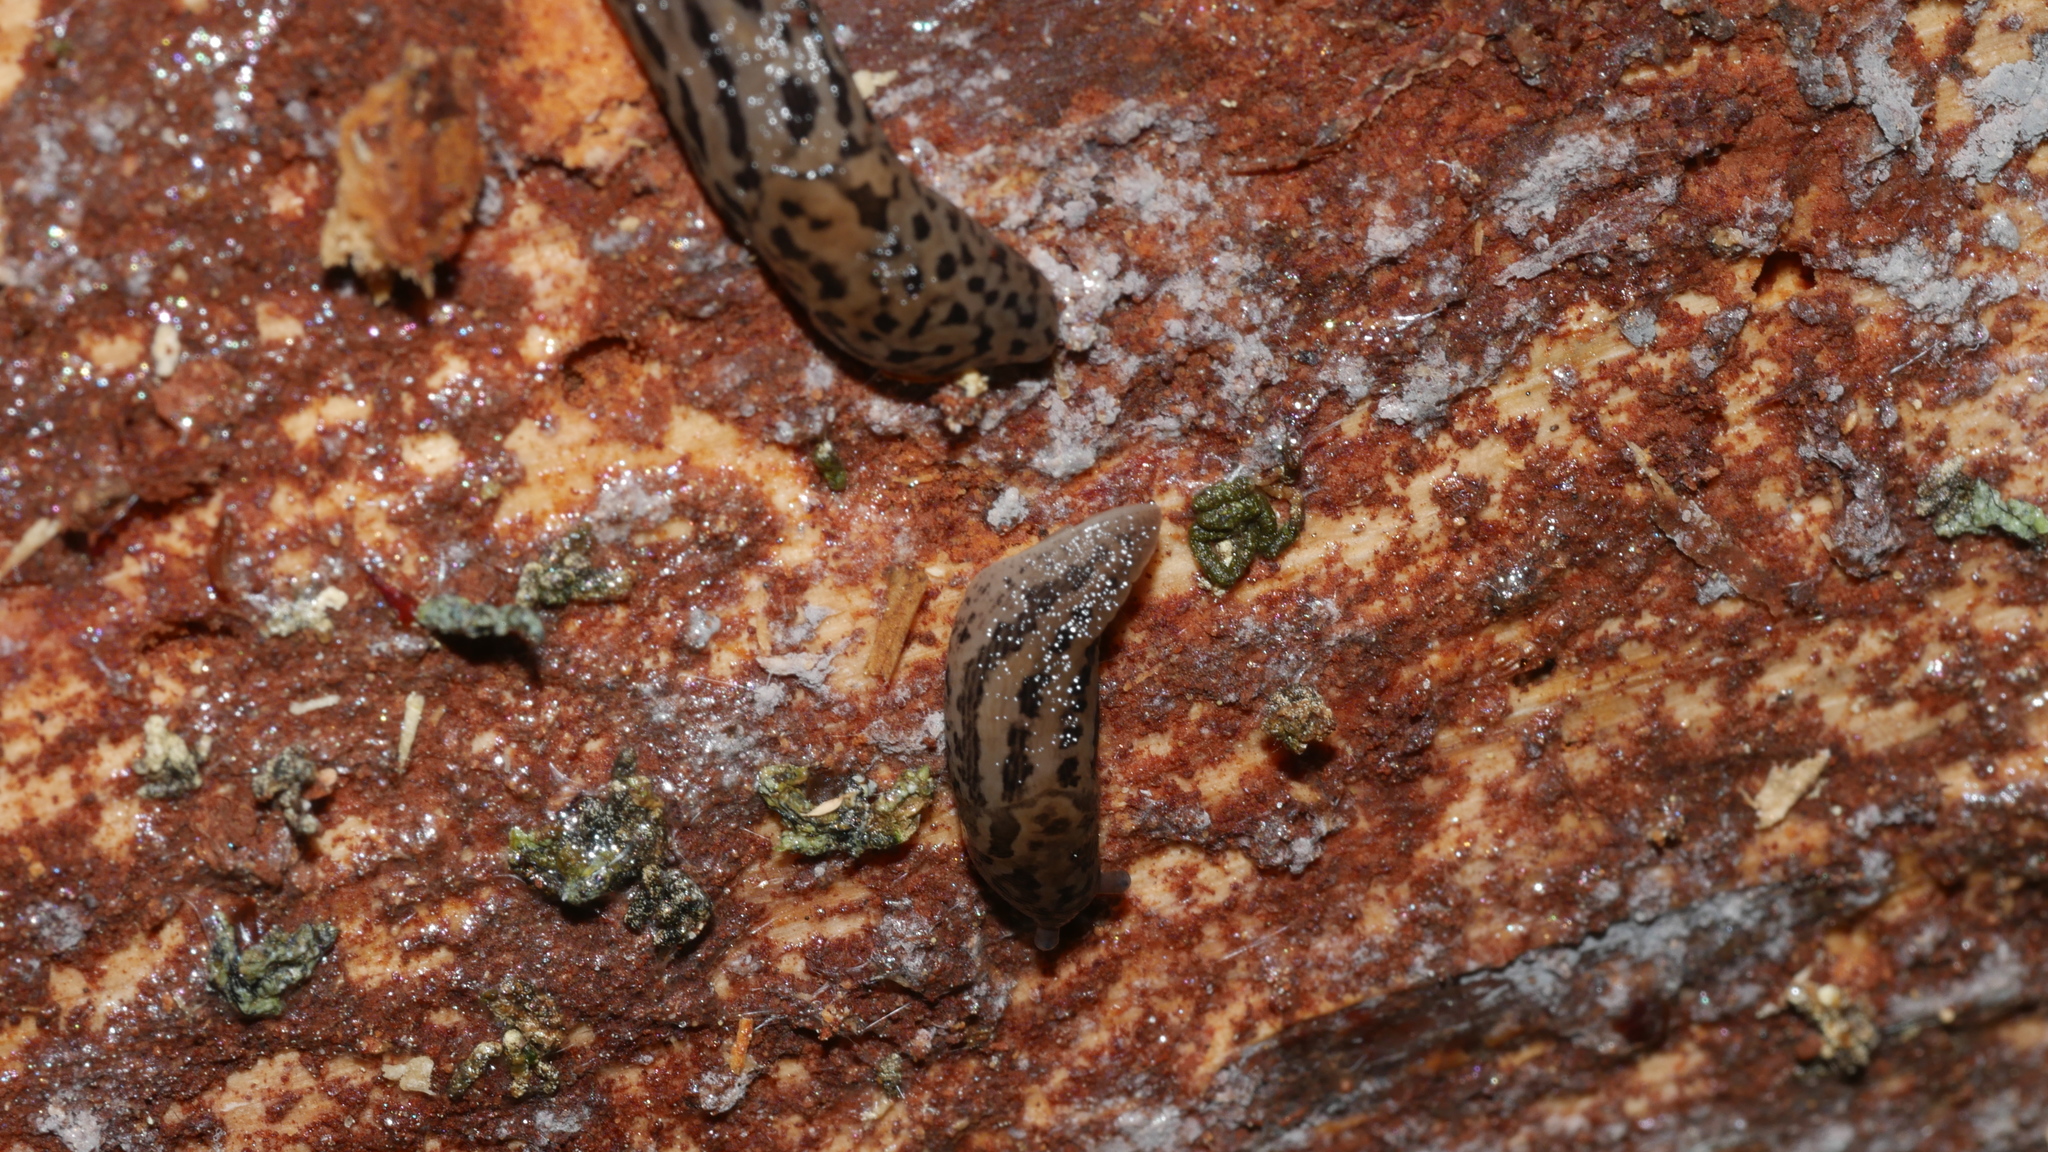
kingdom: Animalia
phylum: Mollusca
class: Gastropoda
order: Stylommatophora
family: Limacidae
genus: Limax
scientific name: Limax maximus
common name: Great grey slug
